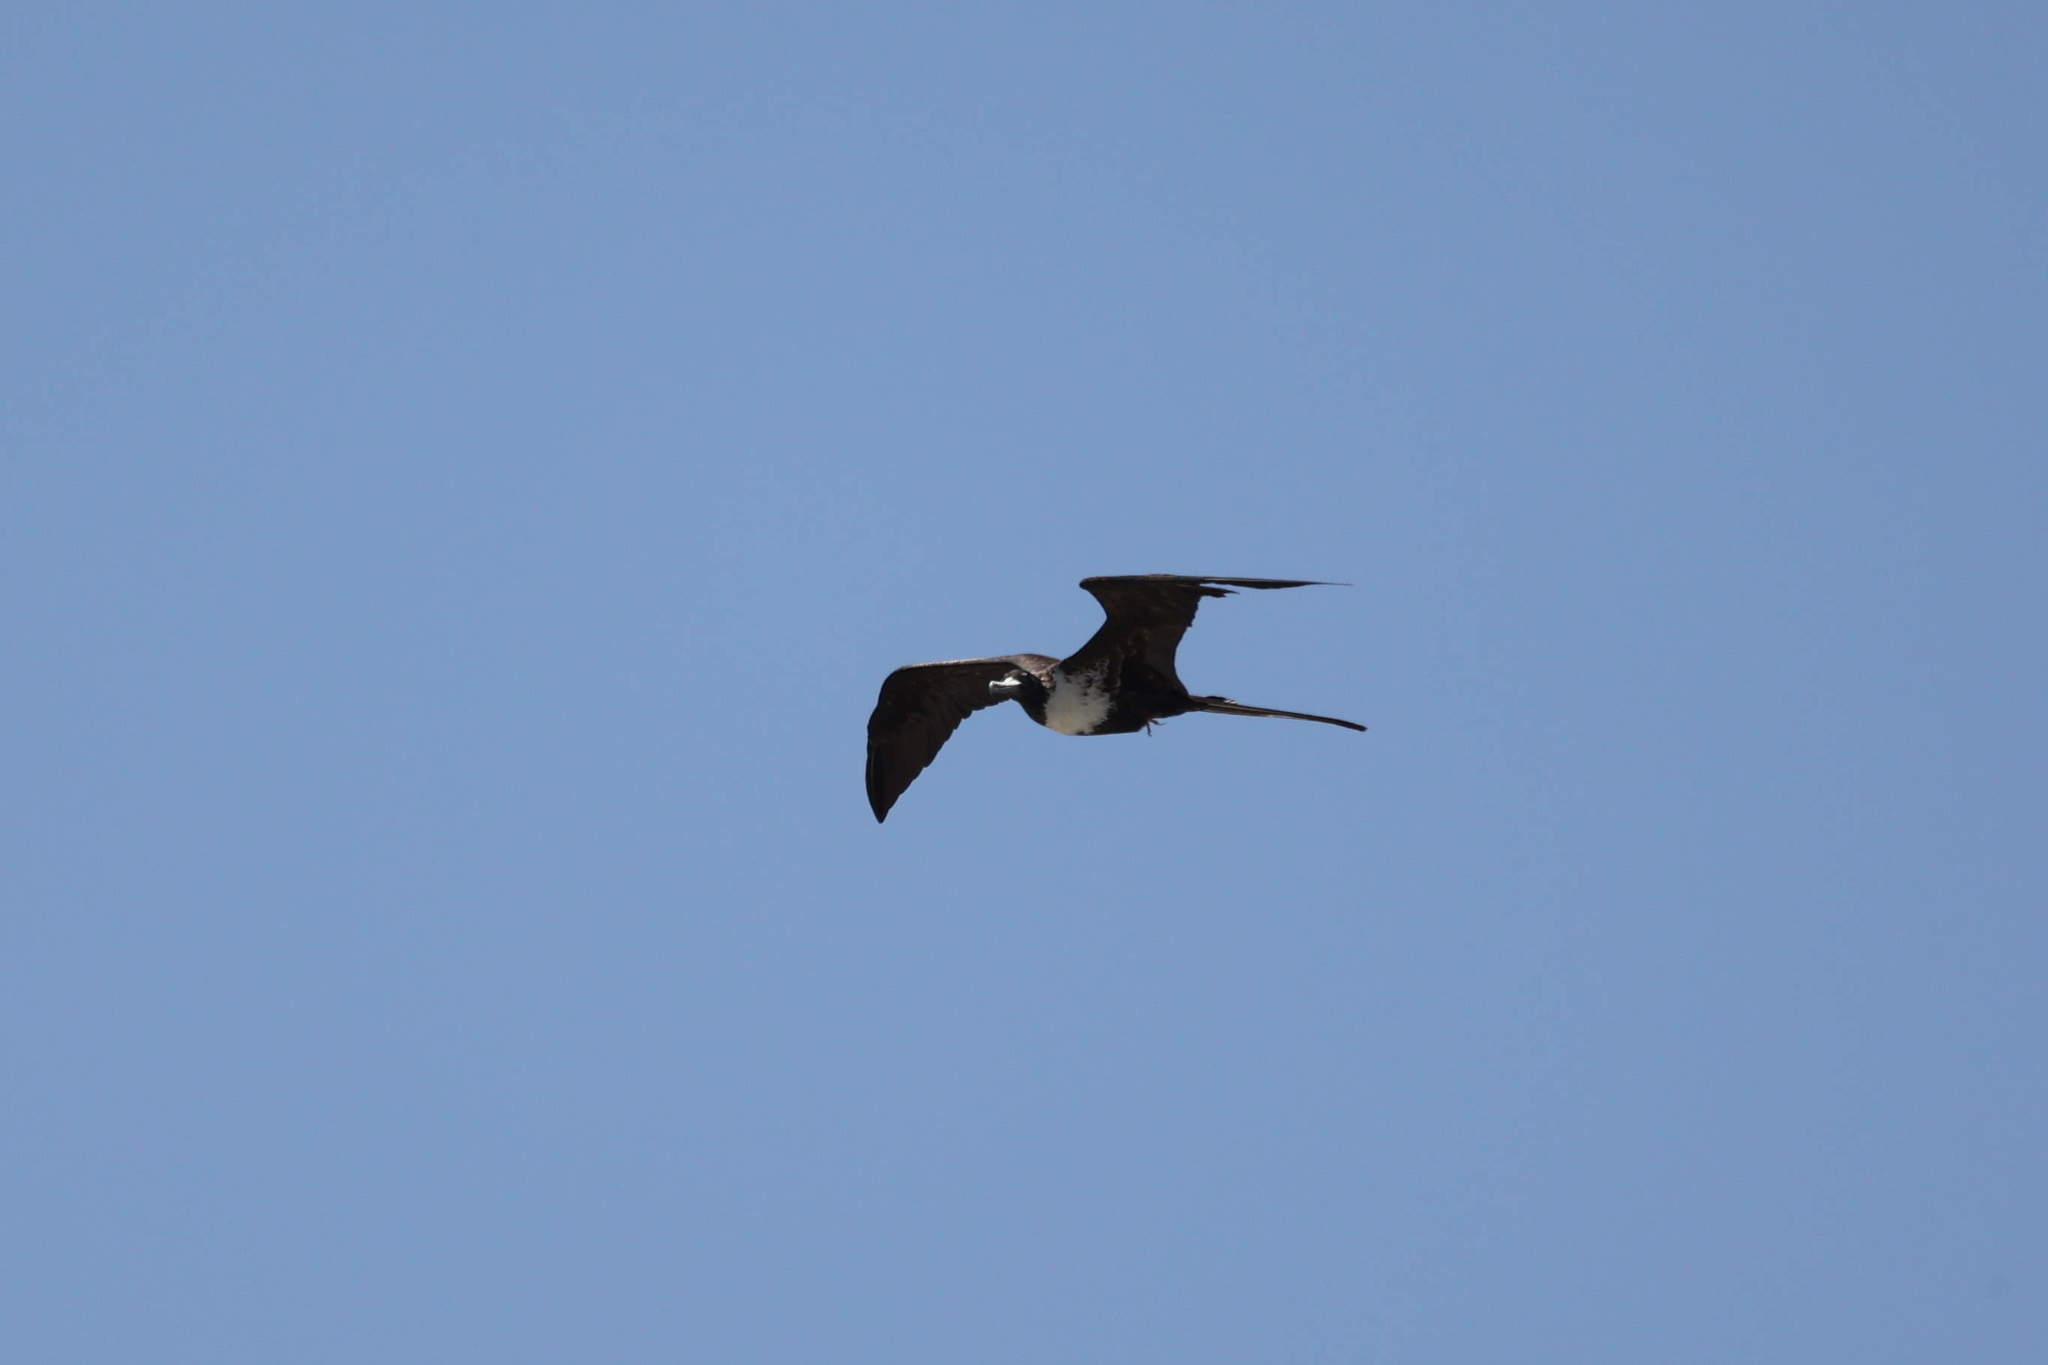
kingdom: Animalia
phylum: Chordata
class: Aves
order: Suliformes
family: Fregatidae
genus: Fregata
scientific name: Fregata magnificens
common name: Magnificent frigatebird
